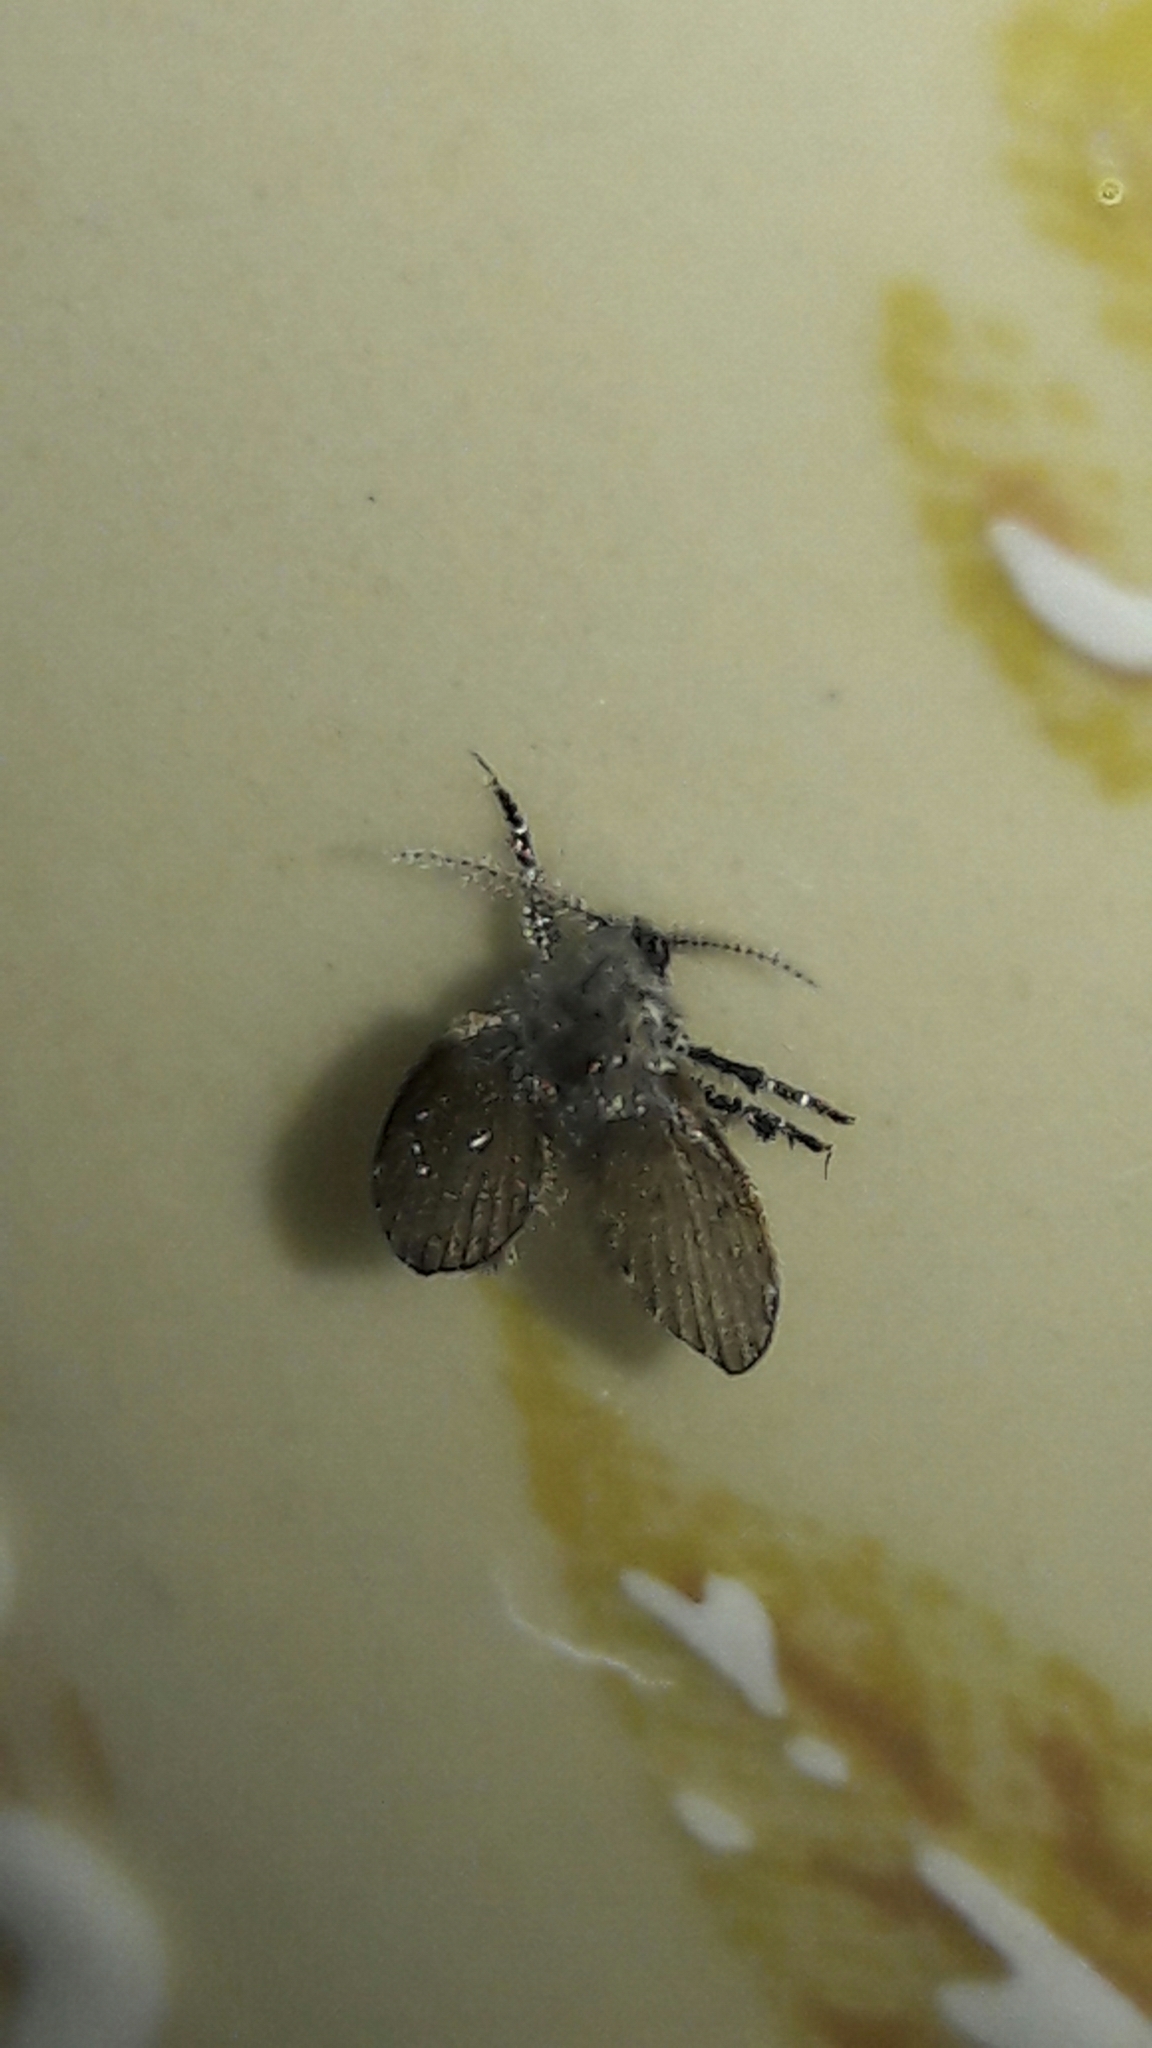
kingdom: Animalia
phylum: Arthropoda
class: Insecta
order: Diptera
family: Psychodidae
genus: Clogmia
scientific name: Clogmia albipunctatus
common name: White-spotted moth fly
